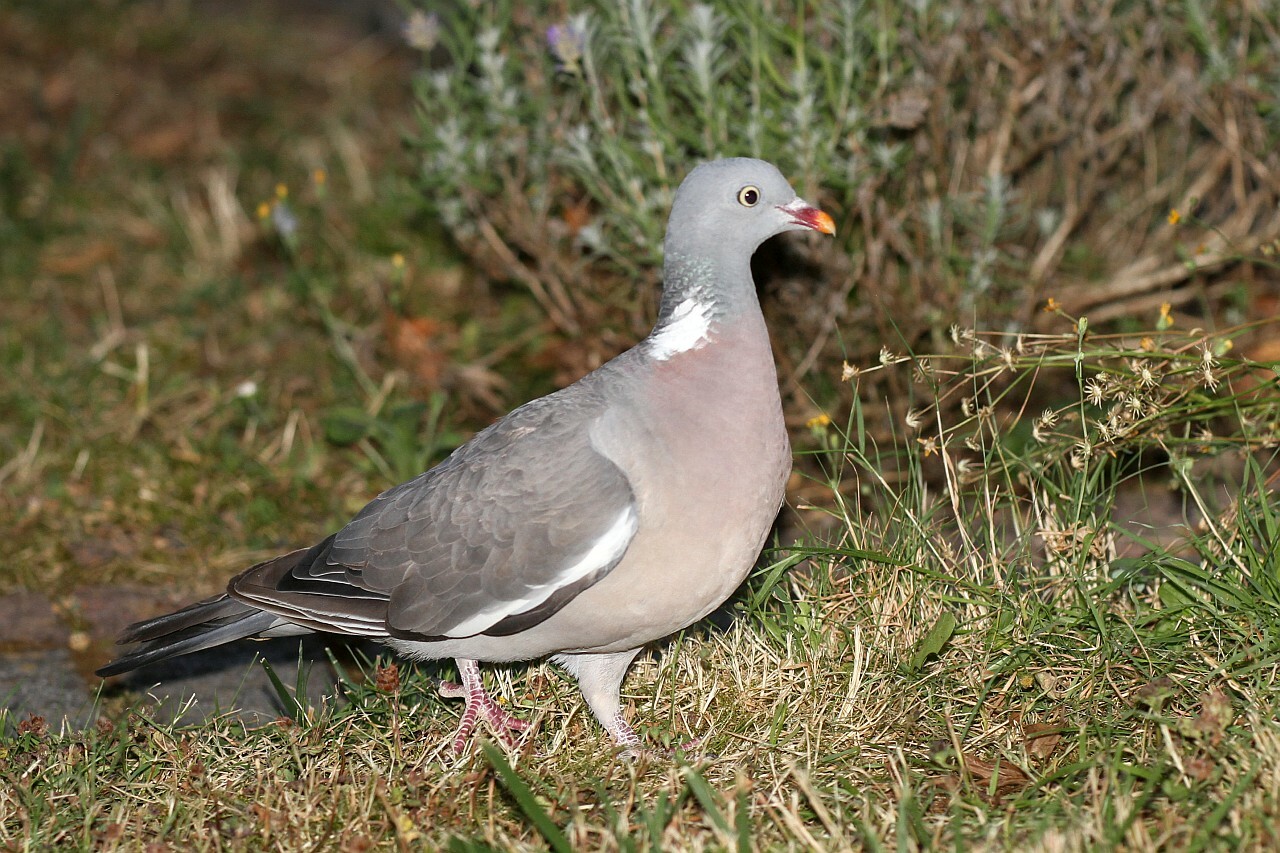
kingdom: Animalia
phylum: Chordata
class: Aves
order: Columbiformes
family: Columbidae
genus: Columba
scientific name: Columba palumbus
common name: Common wood pigeon
